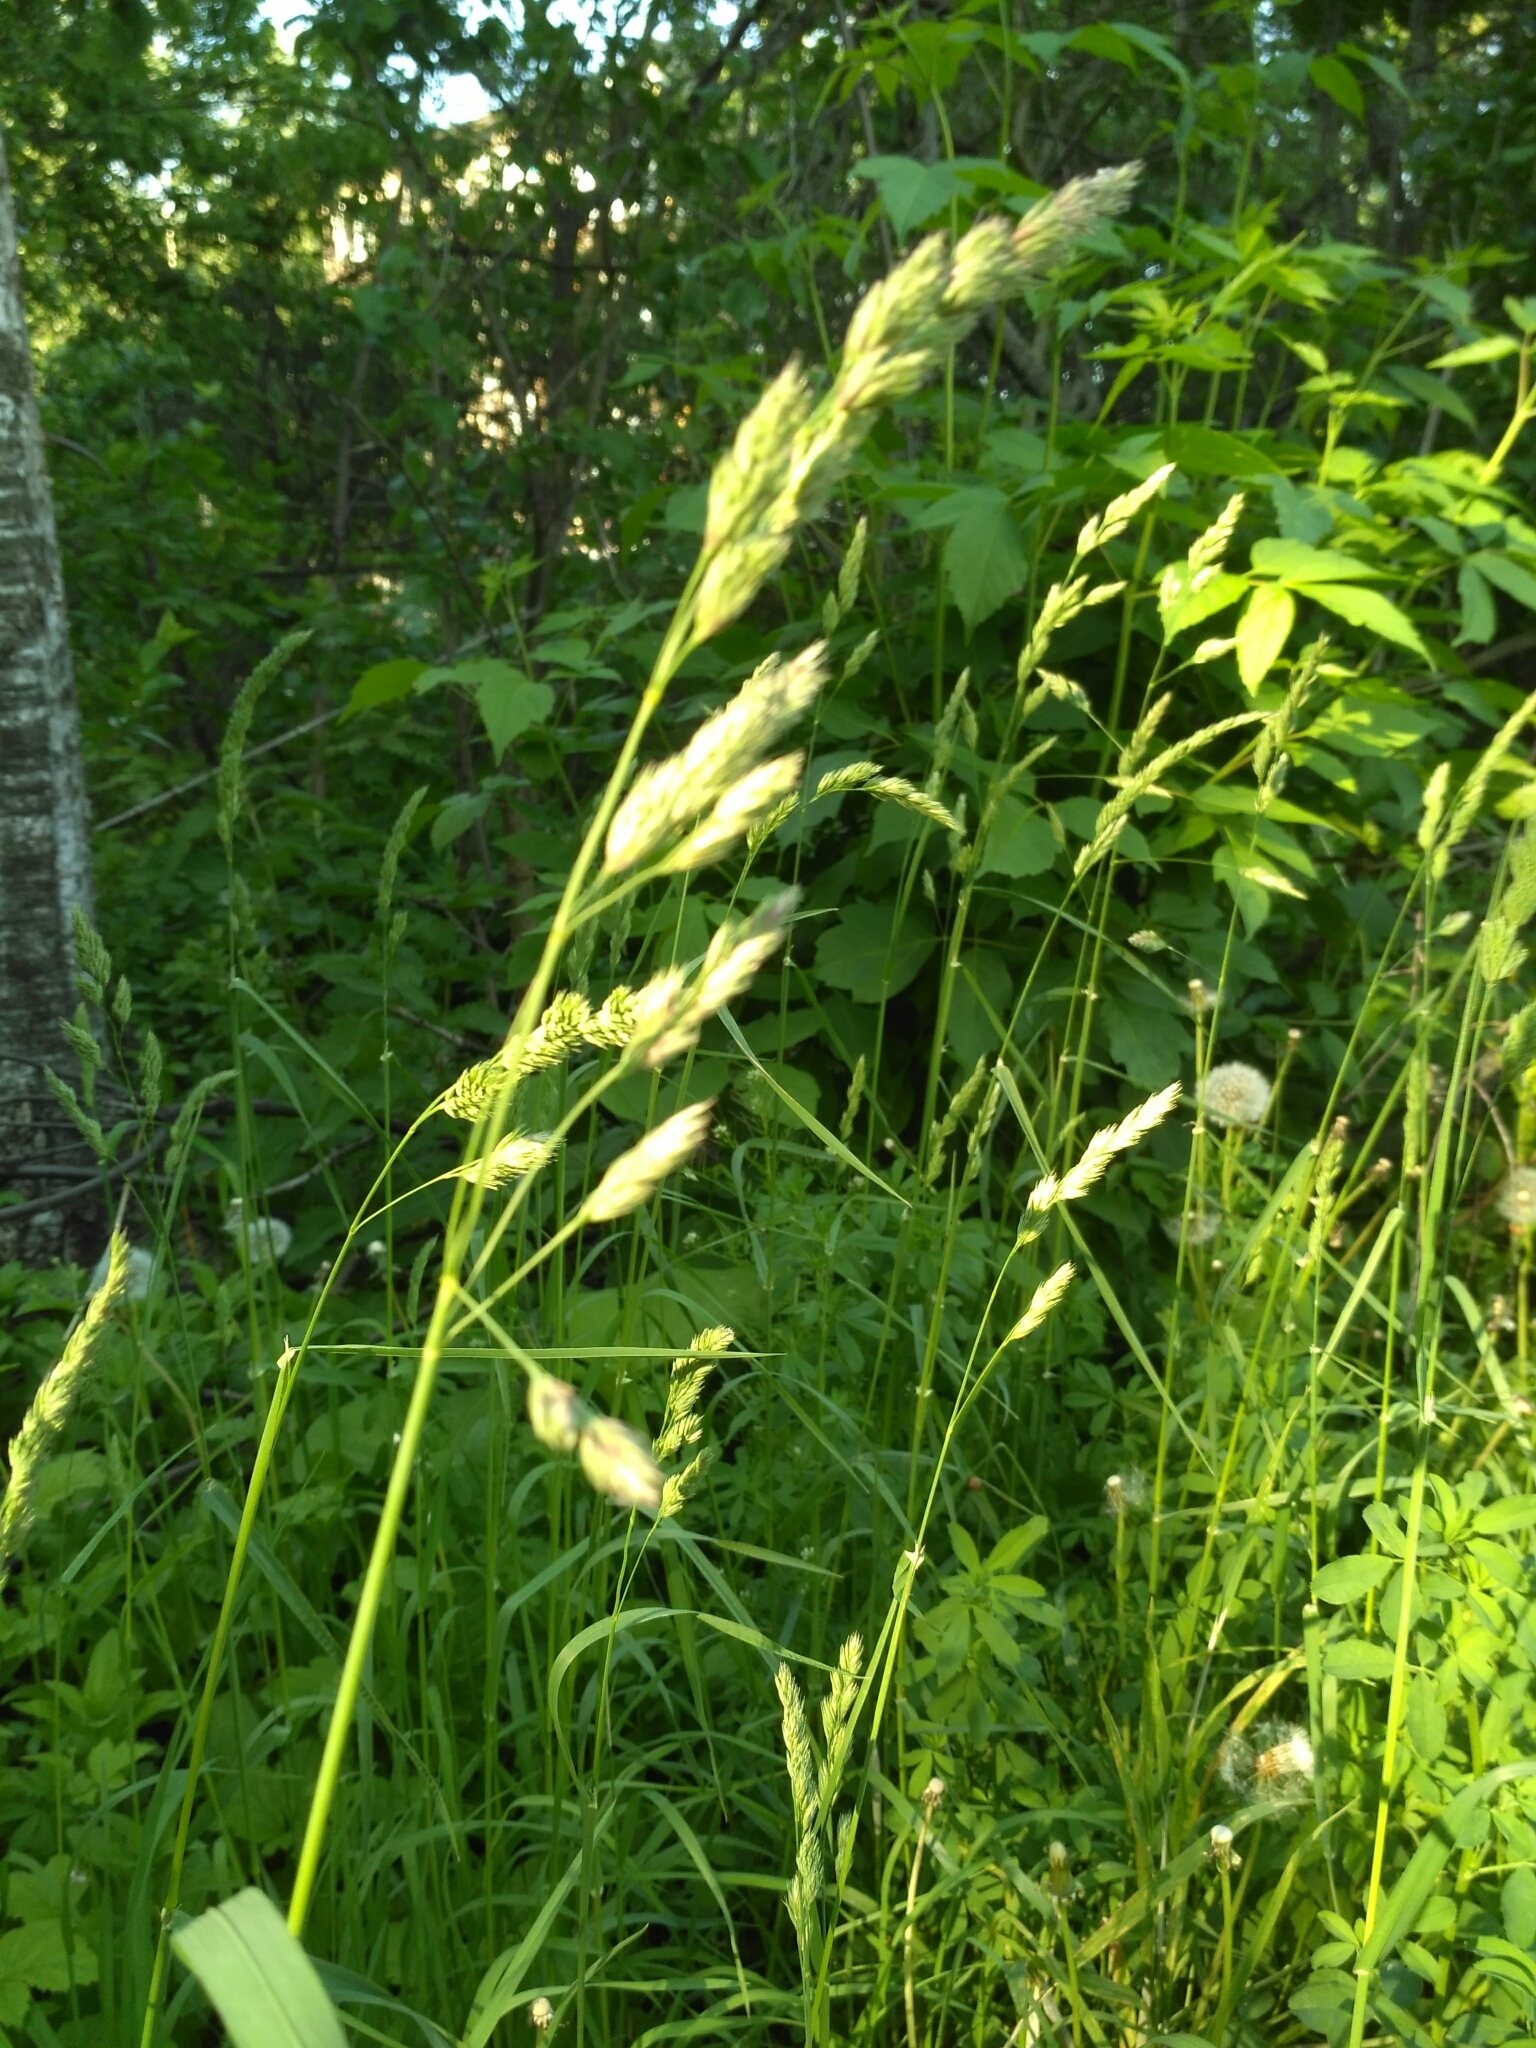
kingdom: Plantae
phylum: Tracheophyta
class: Liliopsida
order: Poales
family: Poaceae
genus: Dactylis
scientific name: Dactylis glomerata
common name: Orchardgrass
